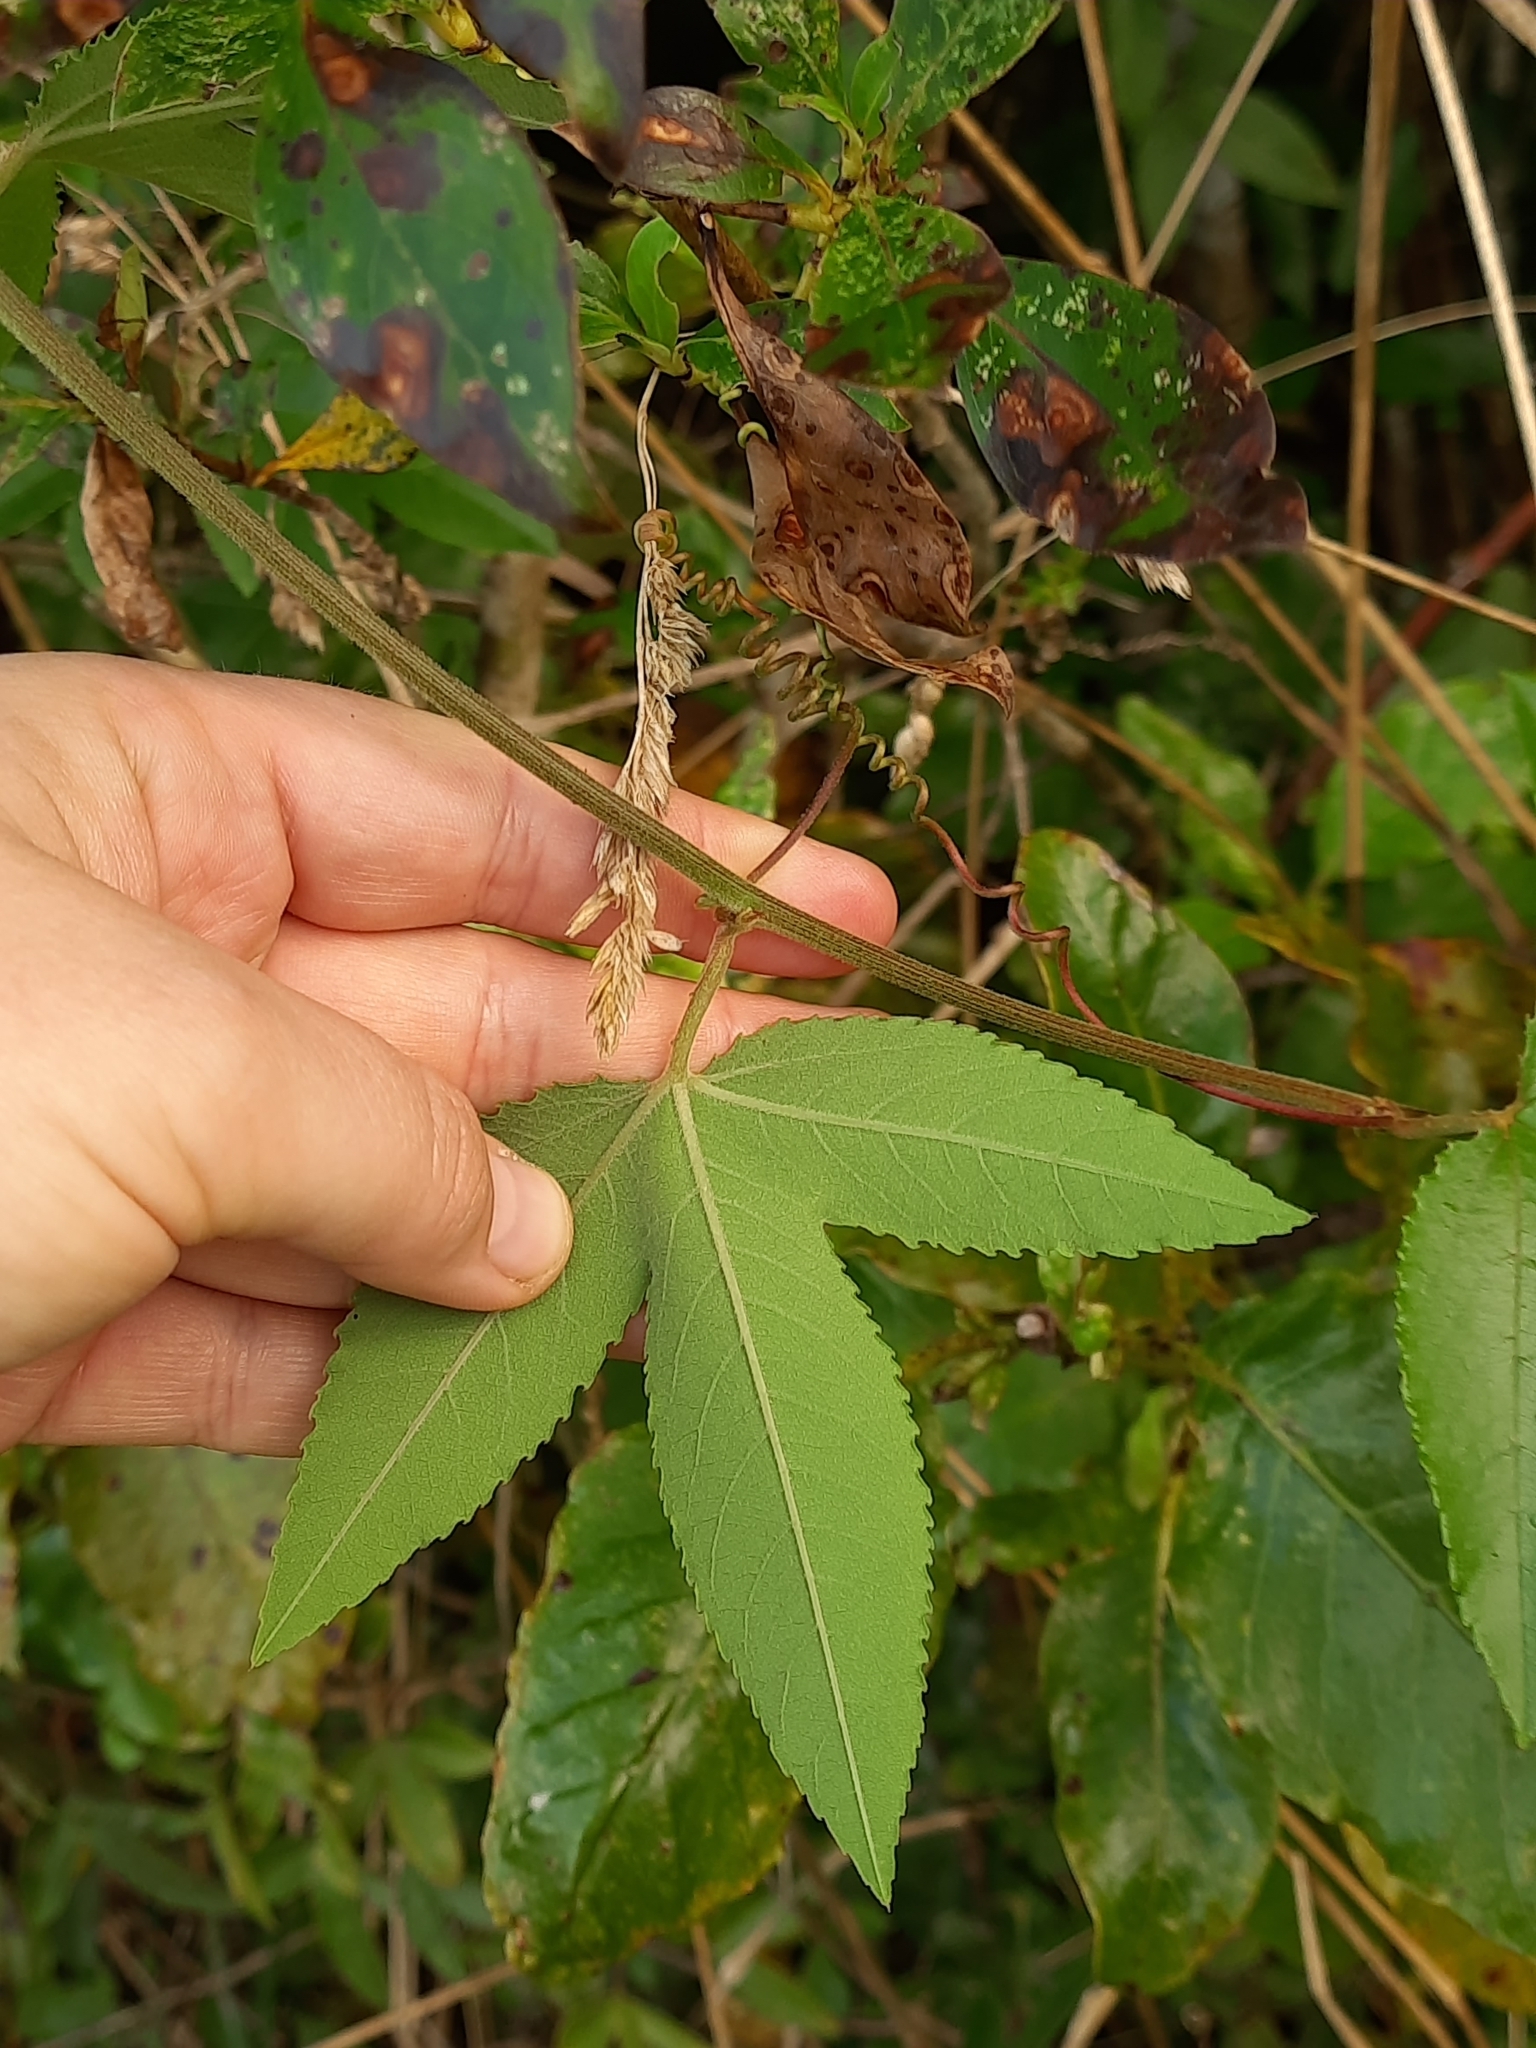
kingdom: Plantae
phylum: Tracheophyta
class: Magnoliopsida
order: Malpighiales
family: Passifloraceae
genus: Passiflora
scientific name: Passiflora tripartita
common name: Banana poka
